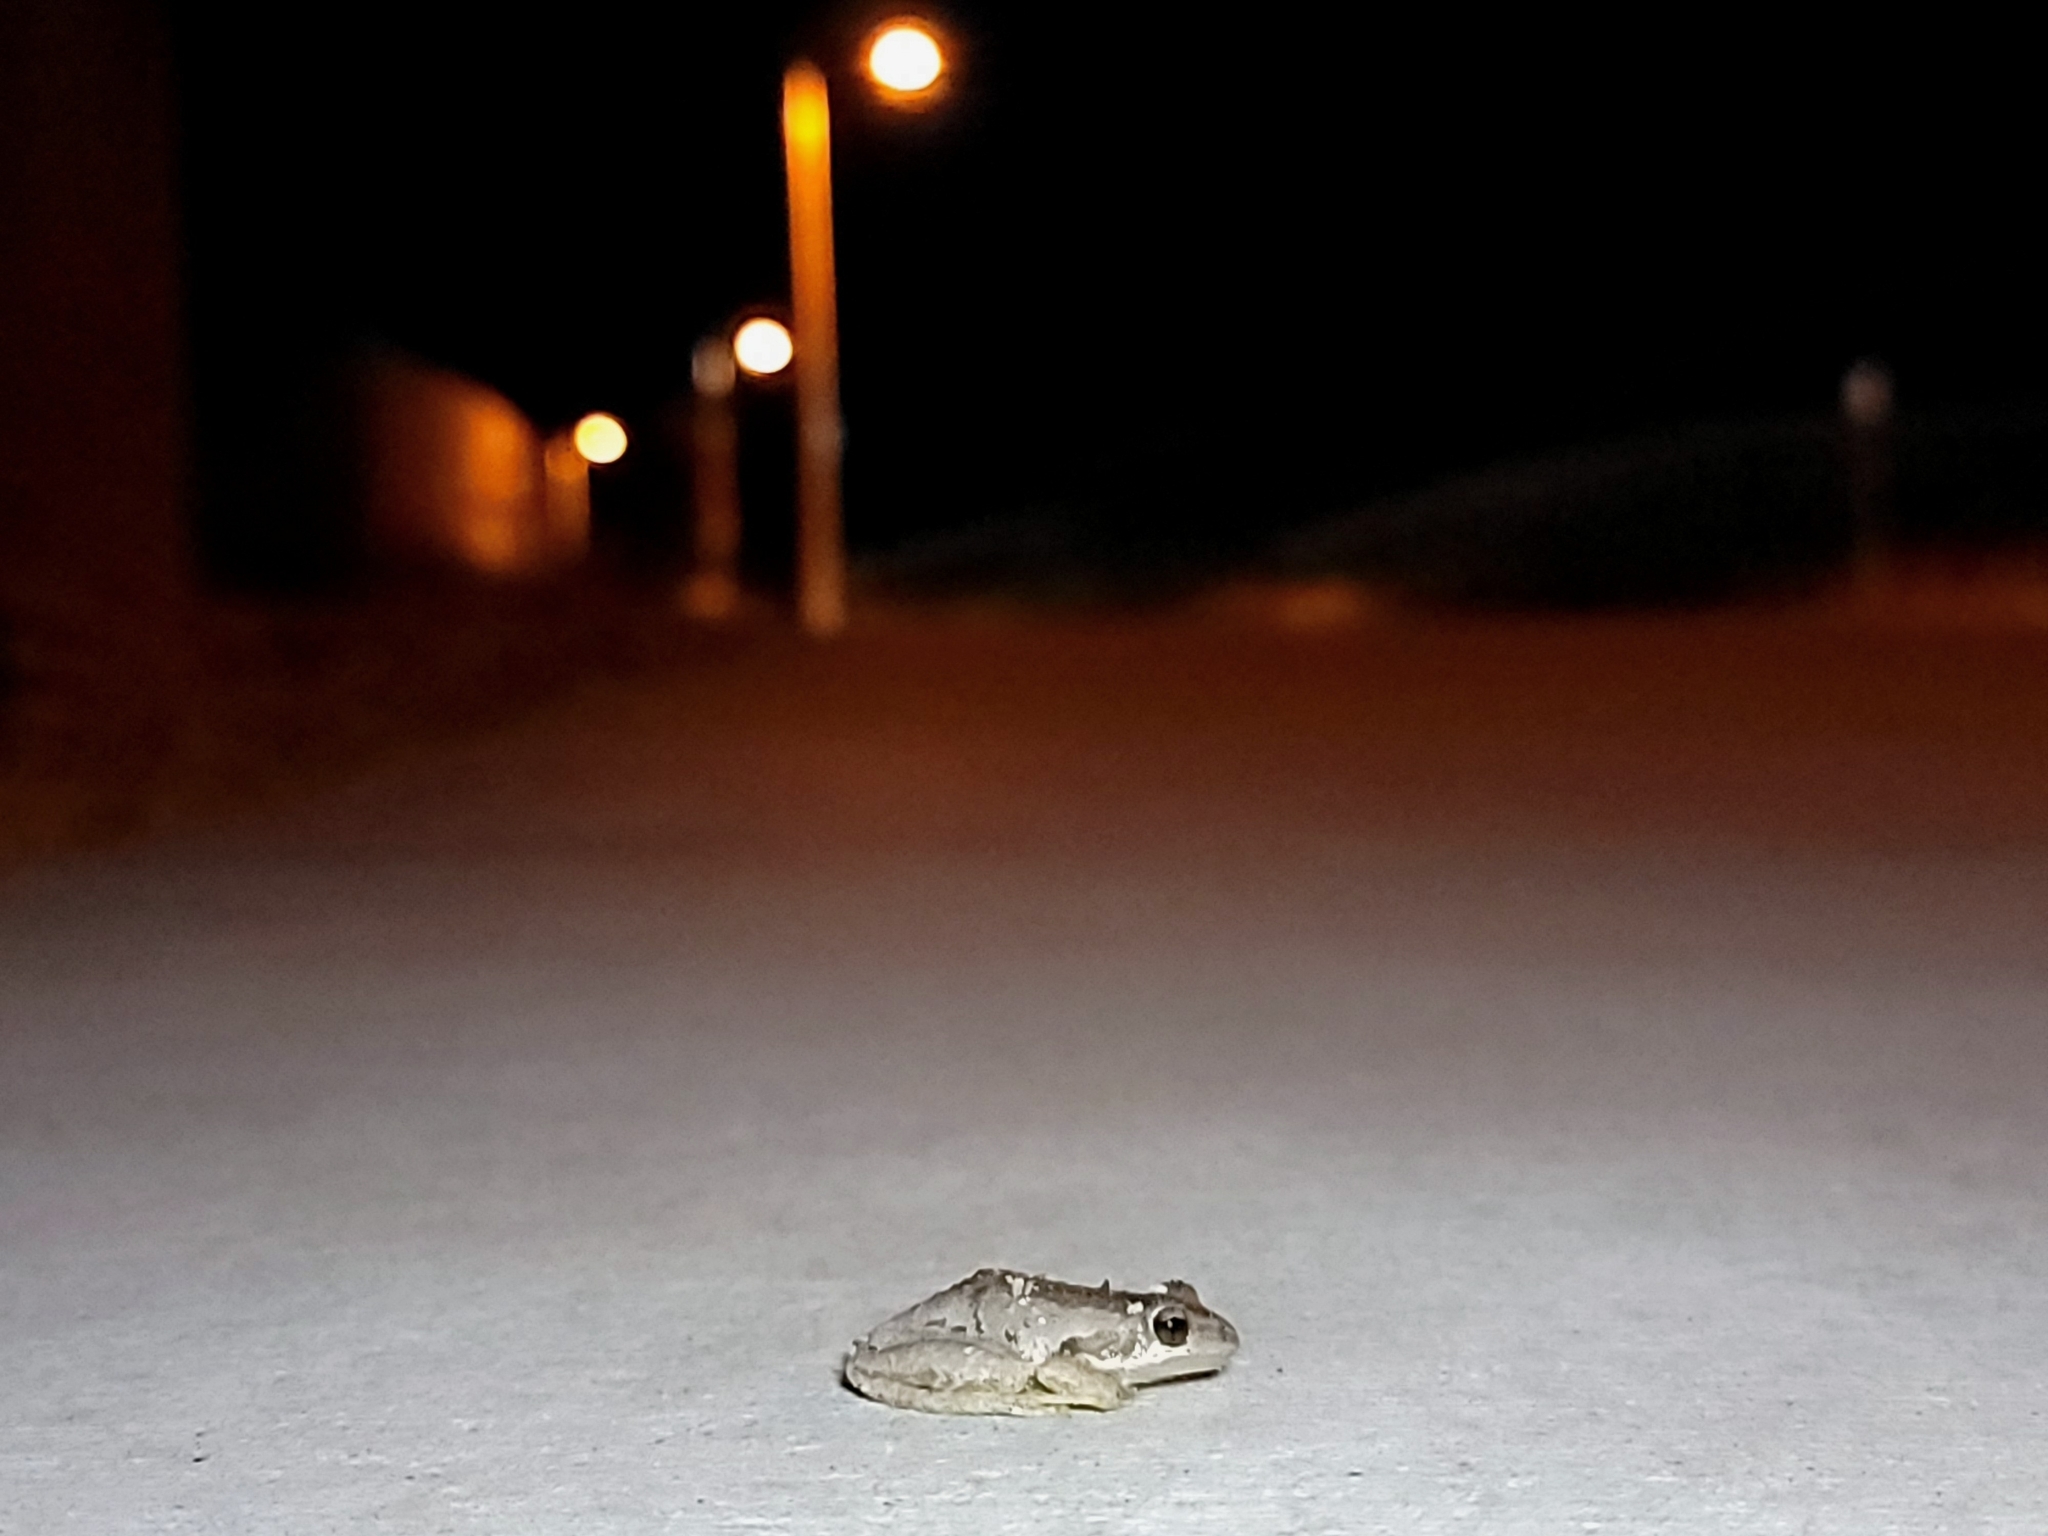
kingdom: Animalia
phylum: Chordata
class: Amphibia
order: Anura
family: Hylidae
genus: Pseudacris
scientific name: Pseudacris regilla
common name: Pacific chorus frog
